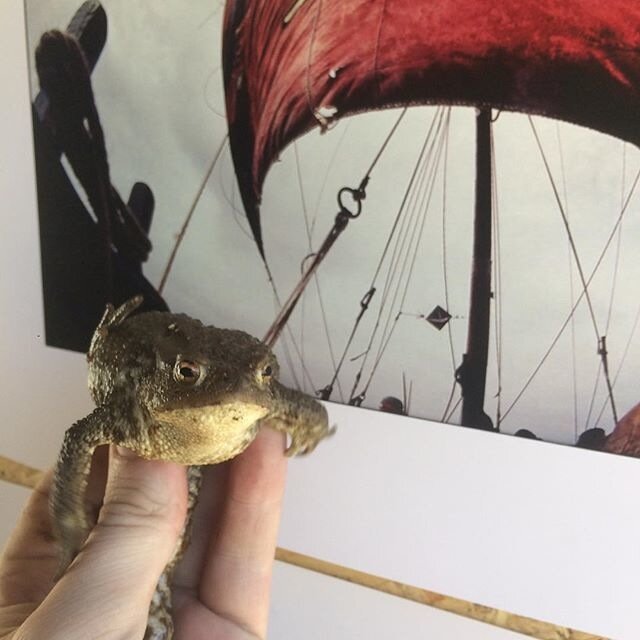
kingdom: Animalia
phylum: Chordata
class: Amphibia
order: Anura
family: Bufonidae
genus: Bufo
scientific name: Bufo bufo
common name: Common toad
